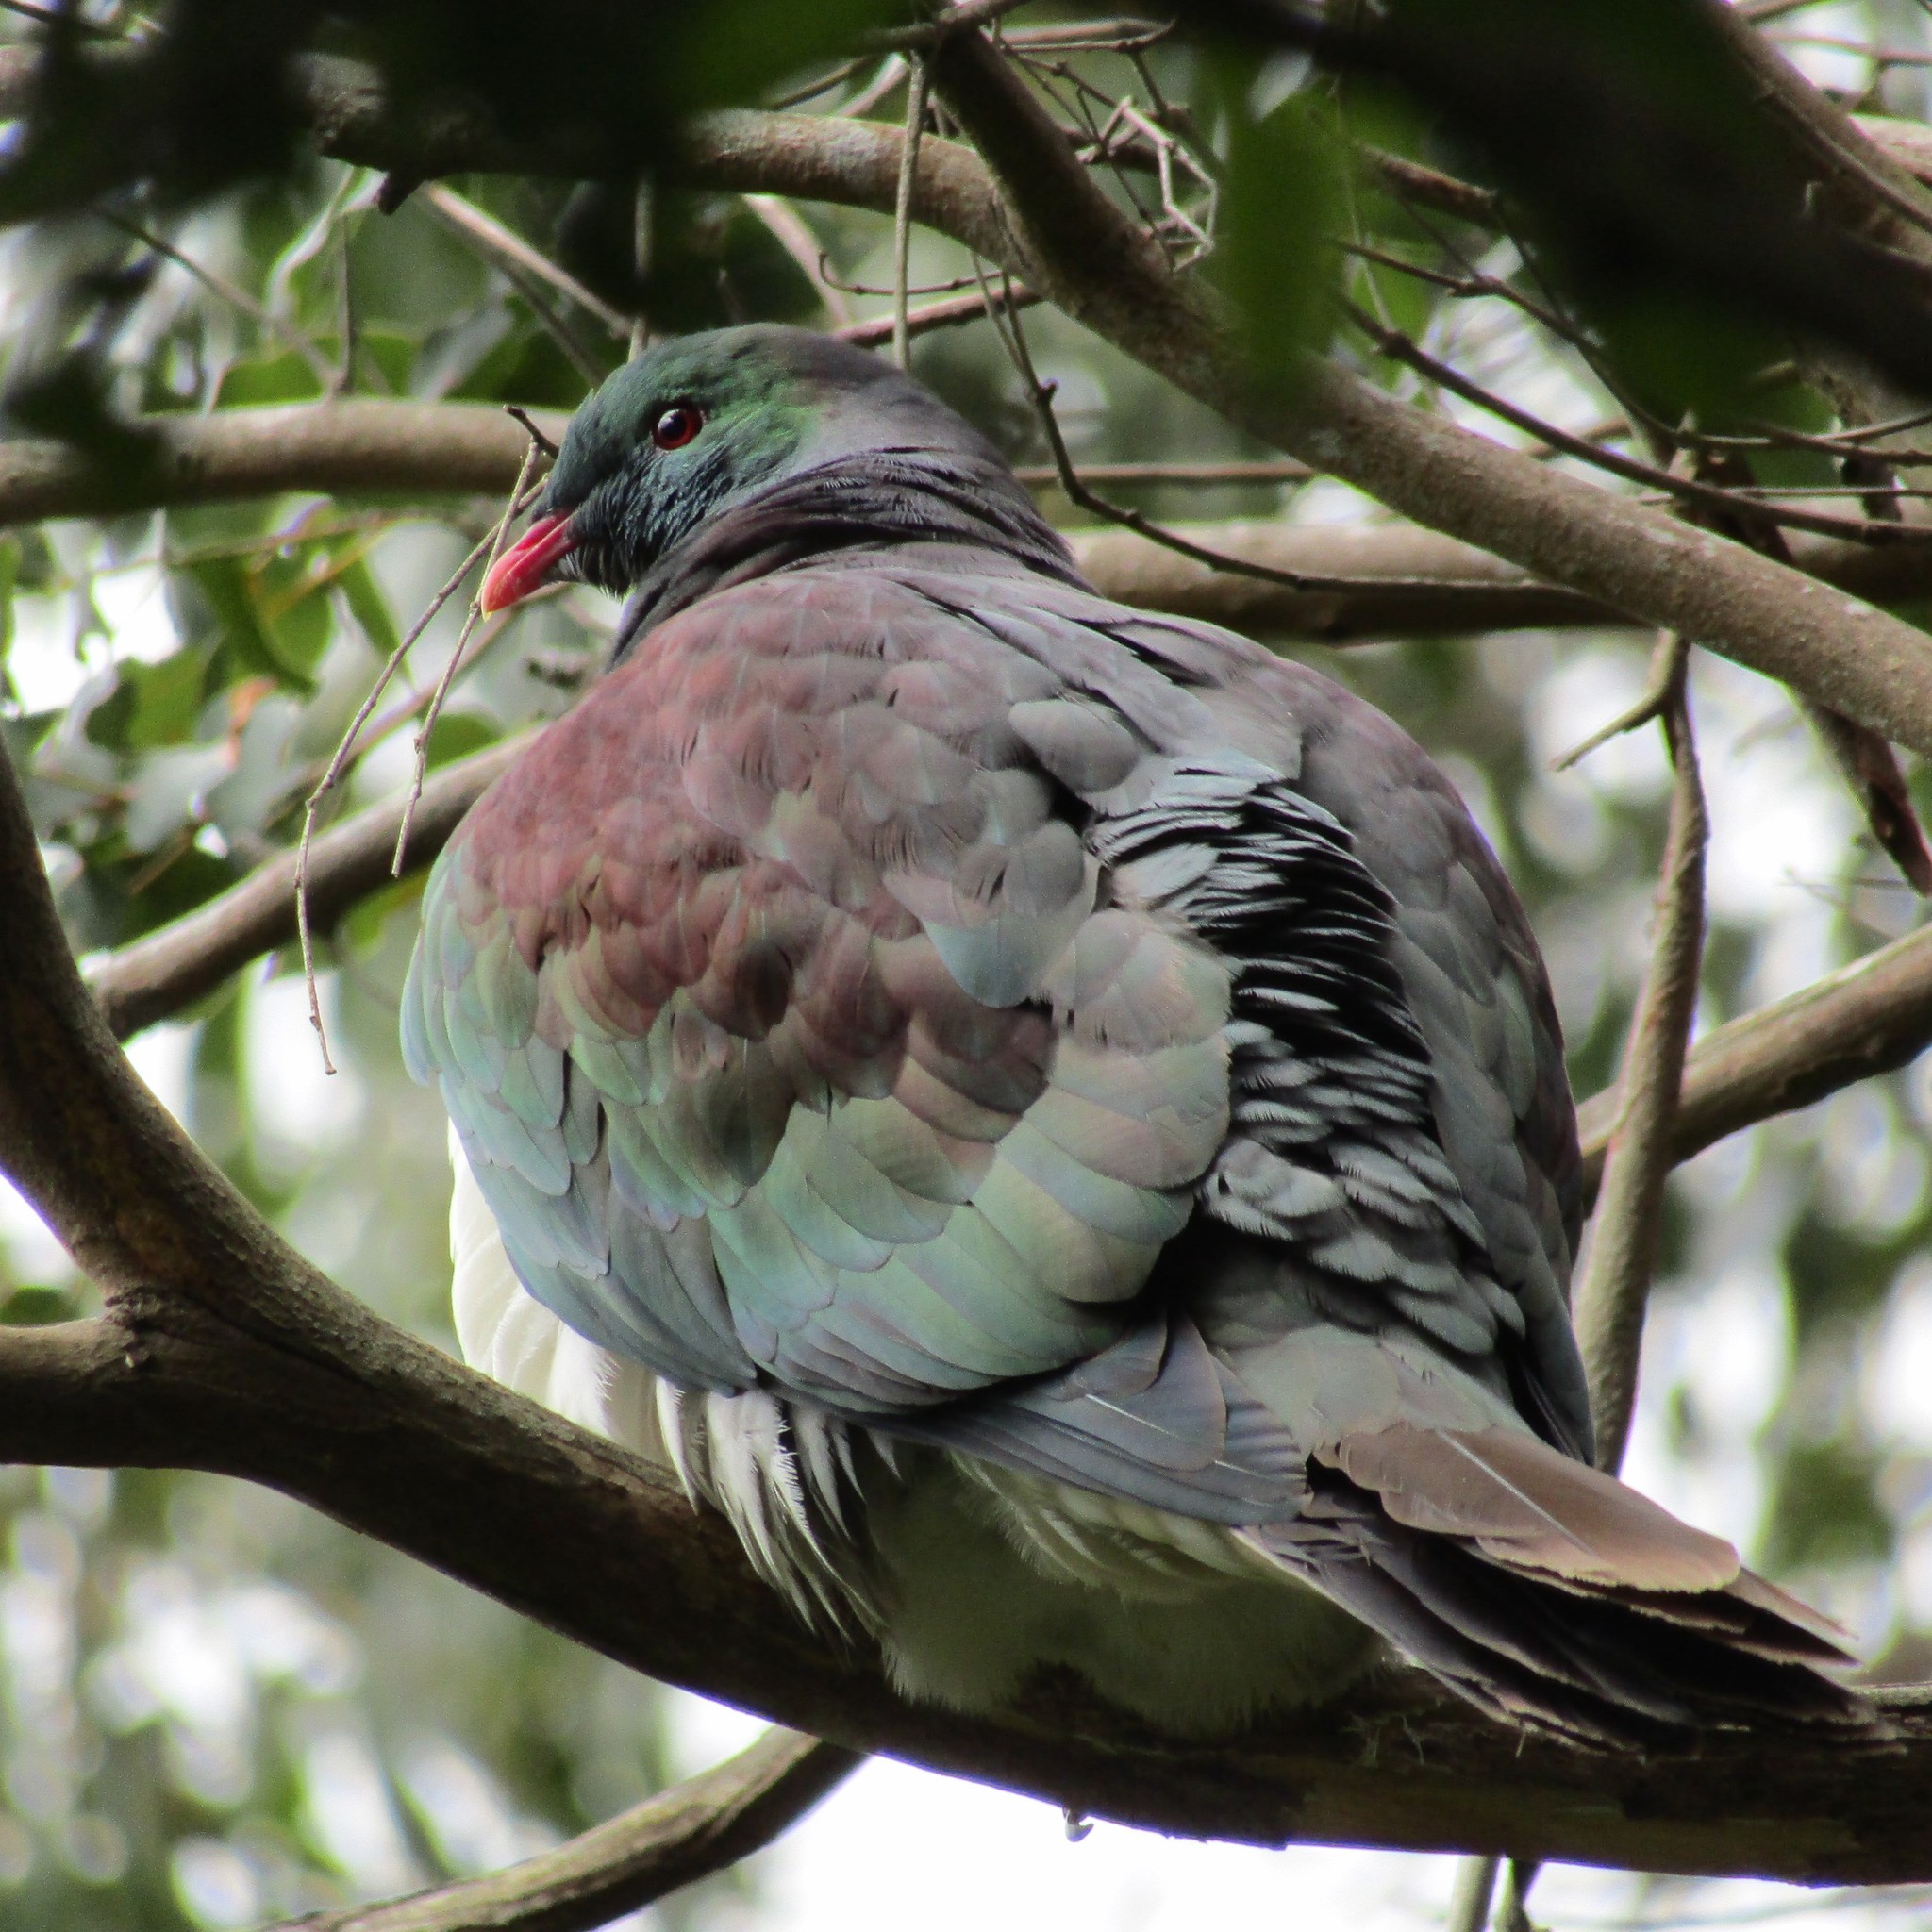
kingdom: Animalia
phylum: Chordata
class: Aves
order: Columbiformes
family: Columbidae
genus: Hemiphaga
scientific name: Hemiphaga novaeseelandiae
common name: New zealand pigeon
